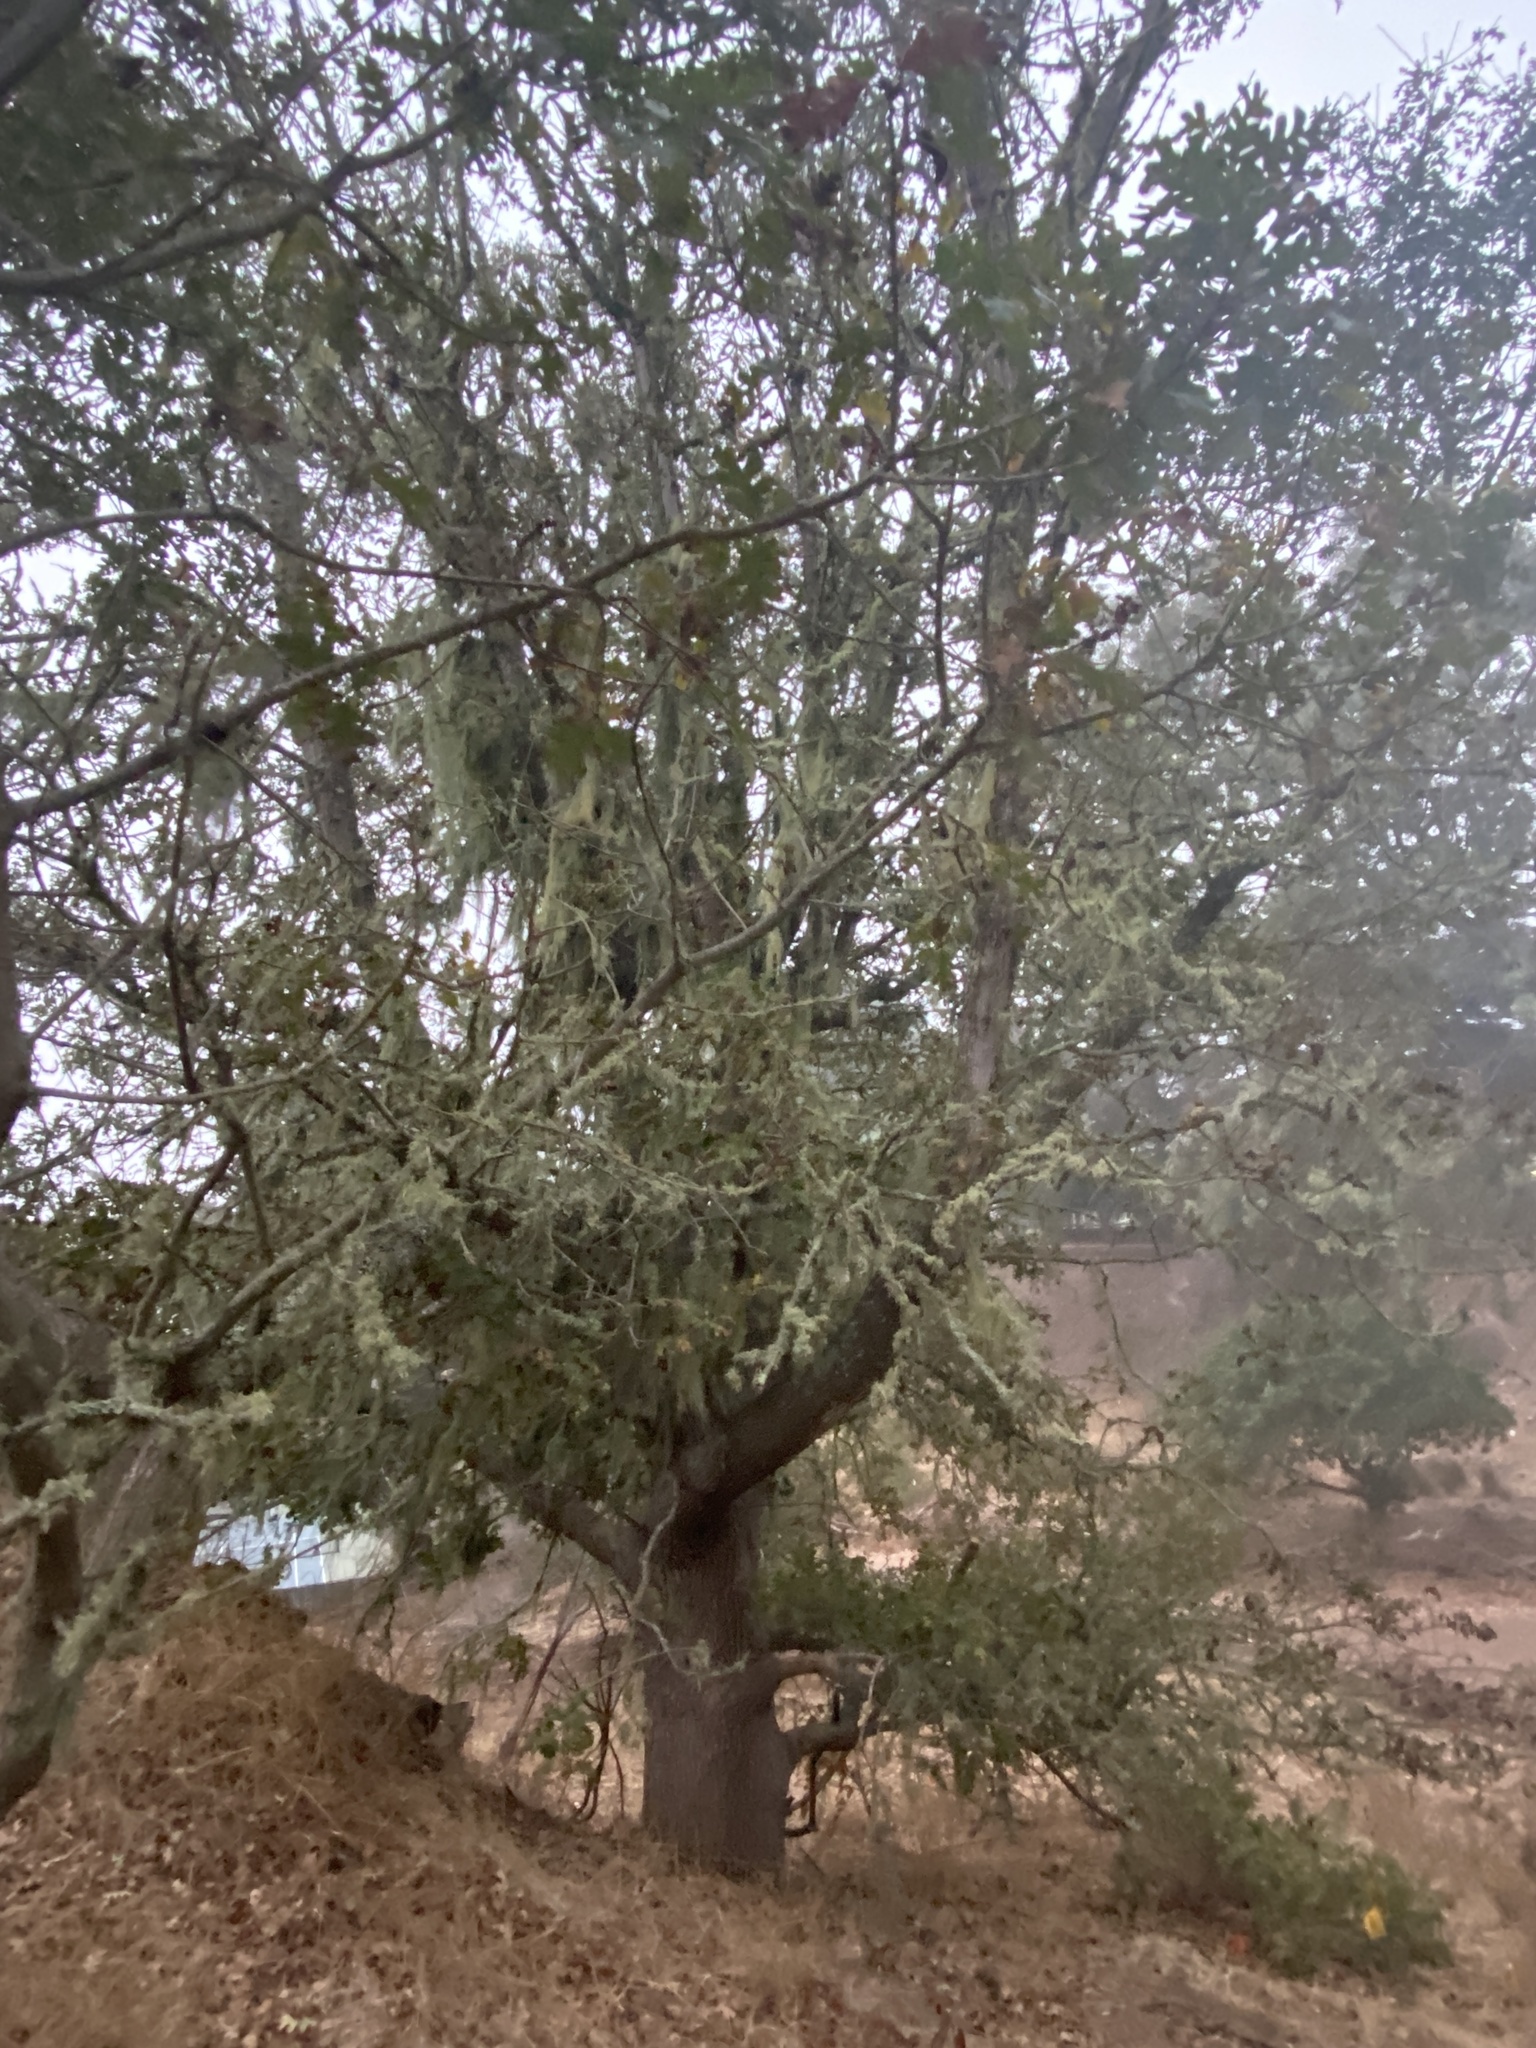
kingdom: Fungi
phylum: Ascomycota
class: Lecanoromycetes
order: Lecanorales
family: Ramalinaceae
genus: Ramalina
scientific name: Ramalina menziesii
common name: Lace lichen
